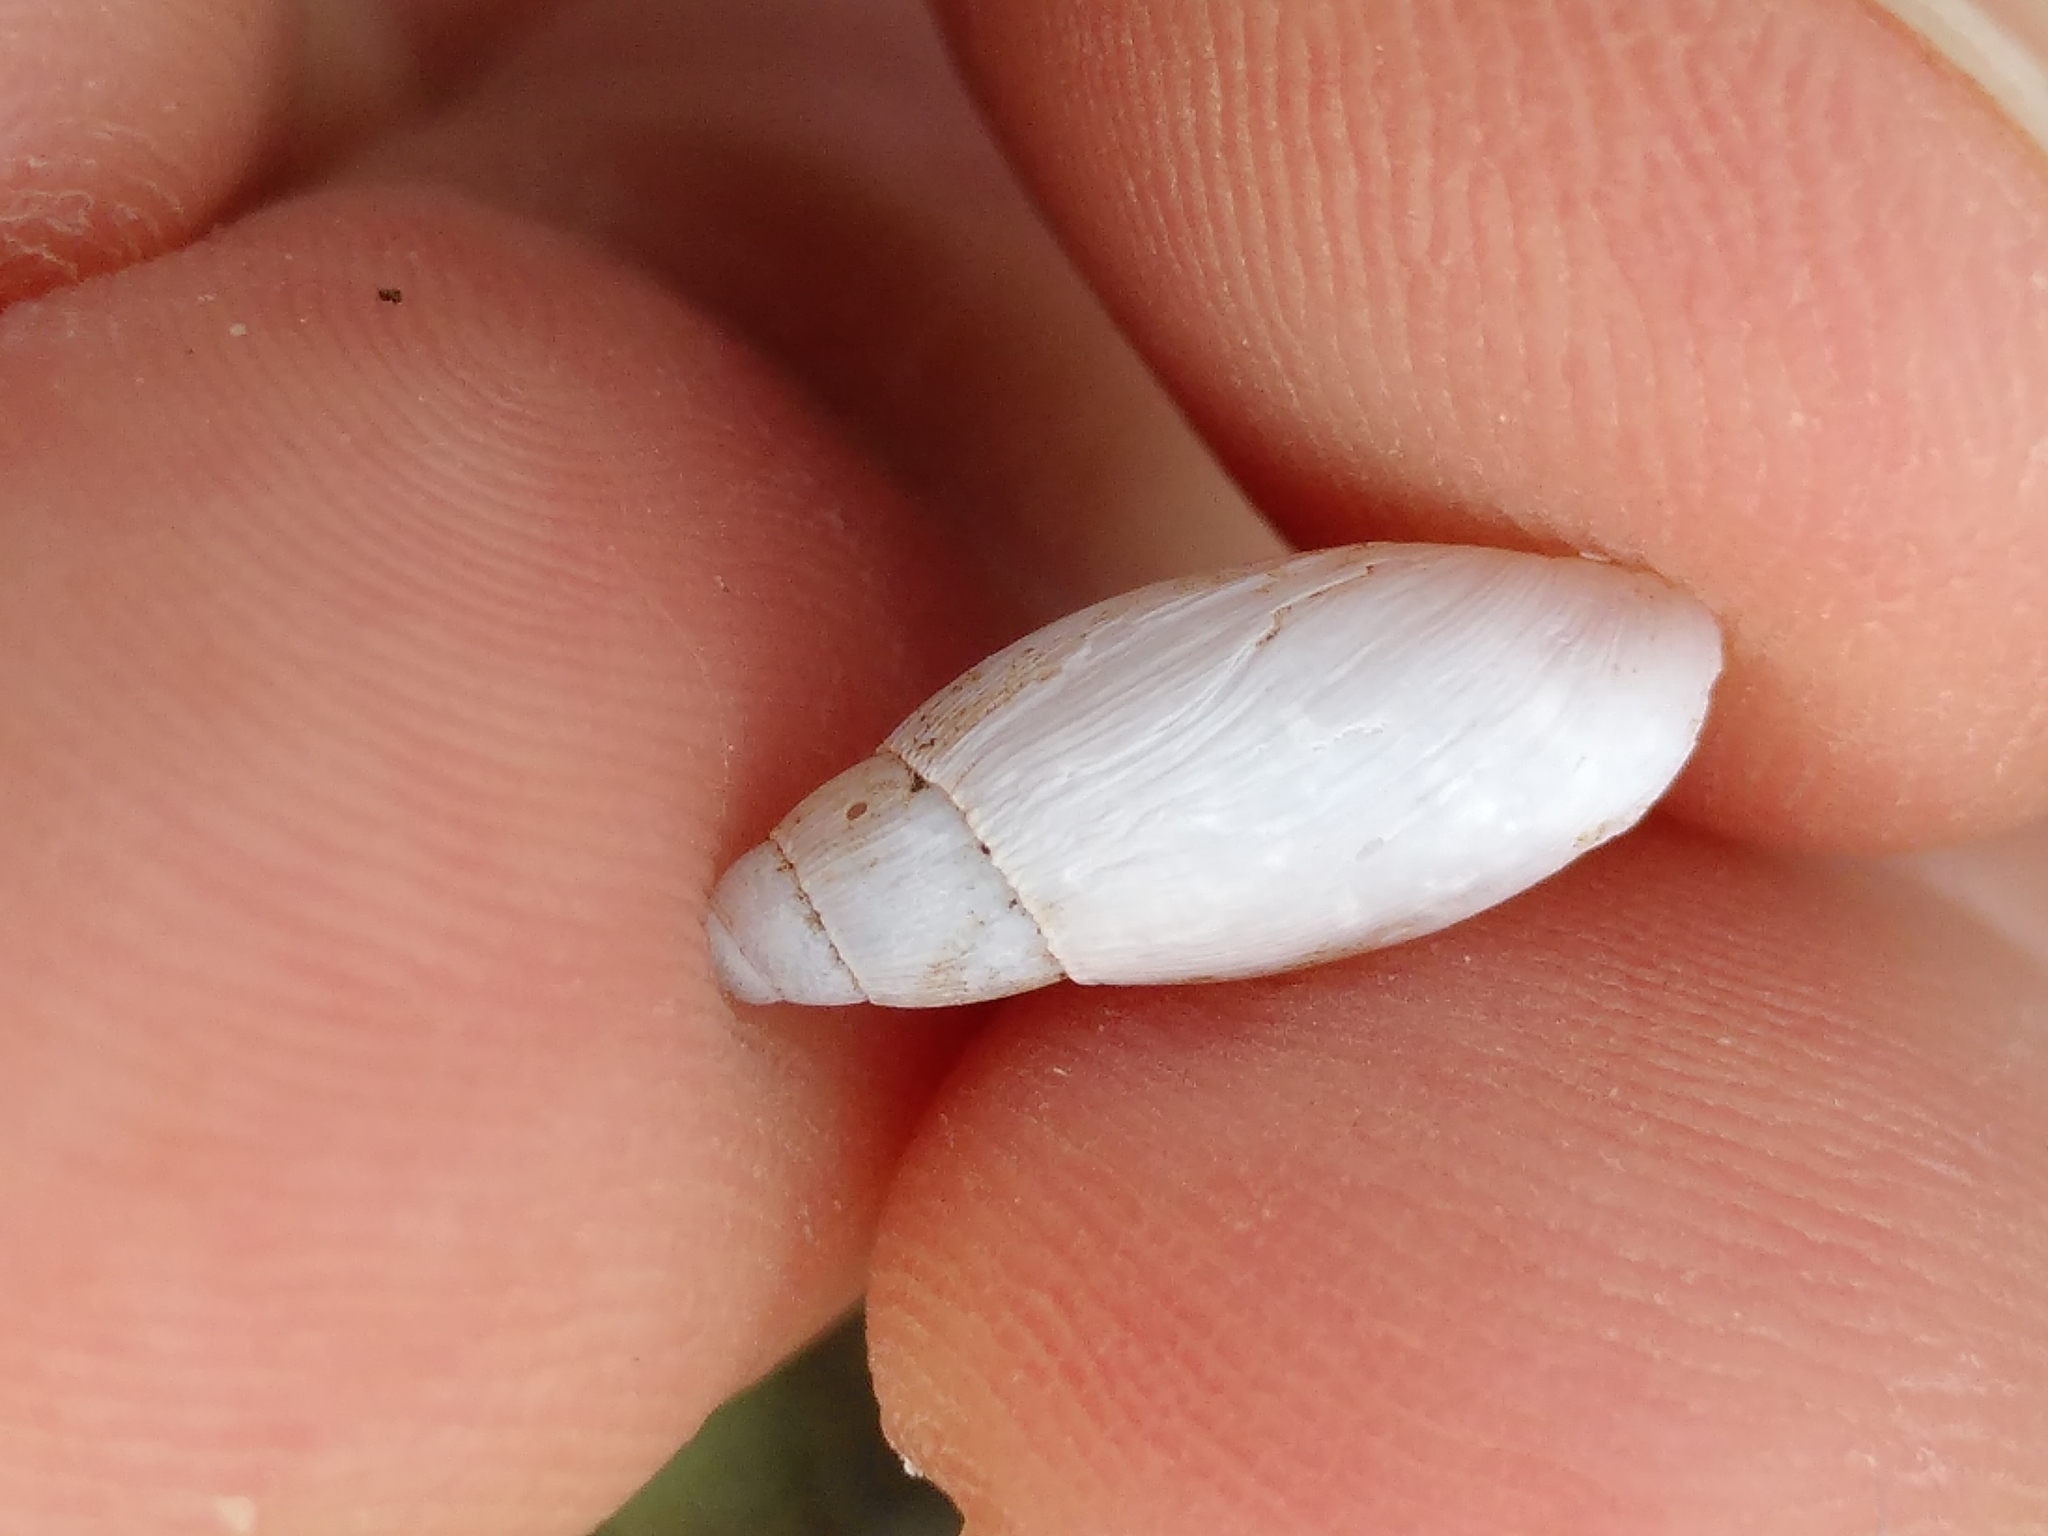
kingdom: Animalia
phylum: Mollusca
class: Gastropoda
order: Stylommatophora
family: Spiraxidae
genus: Poiretia
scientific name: Poiretia cornea
